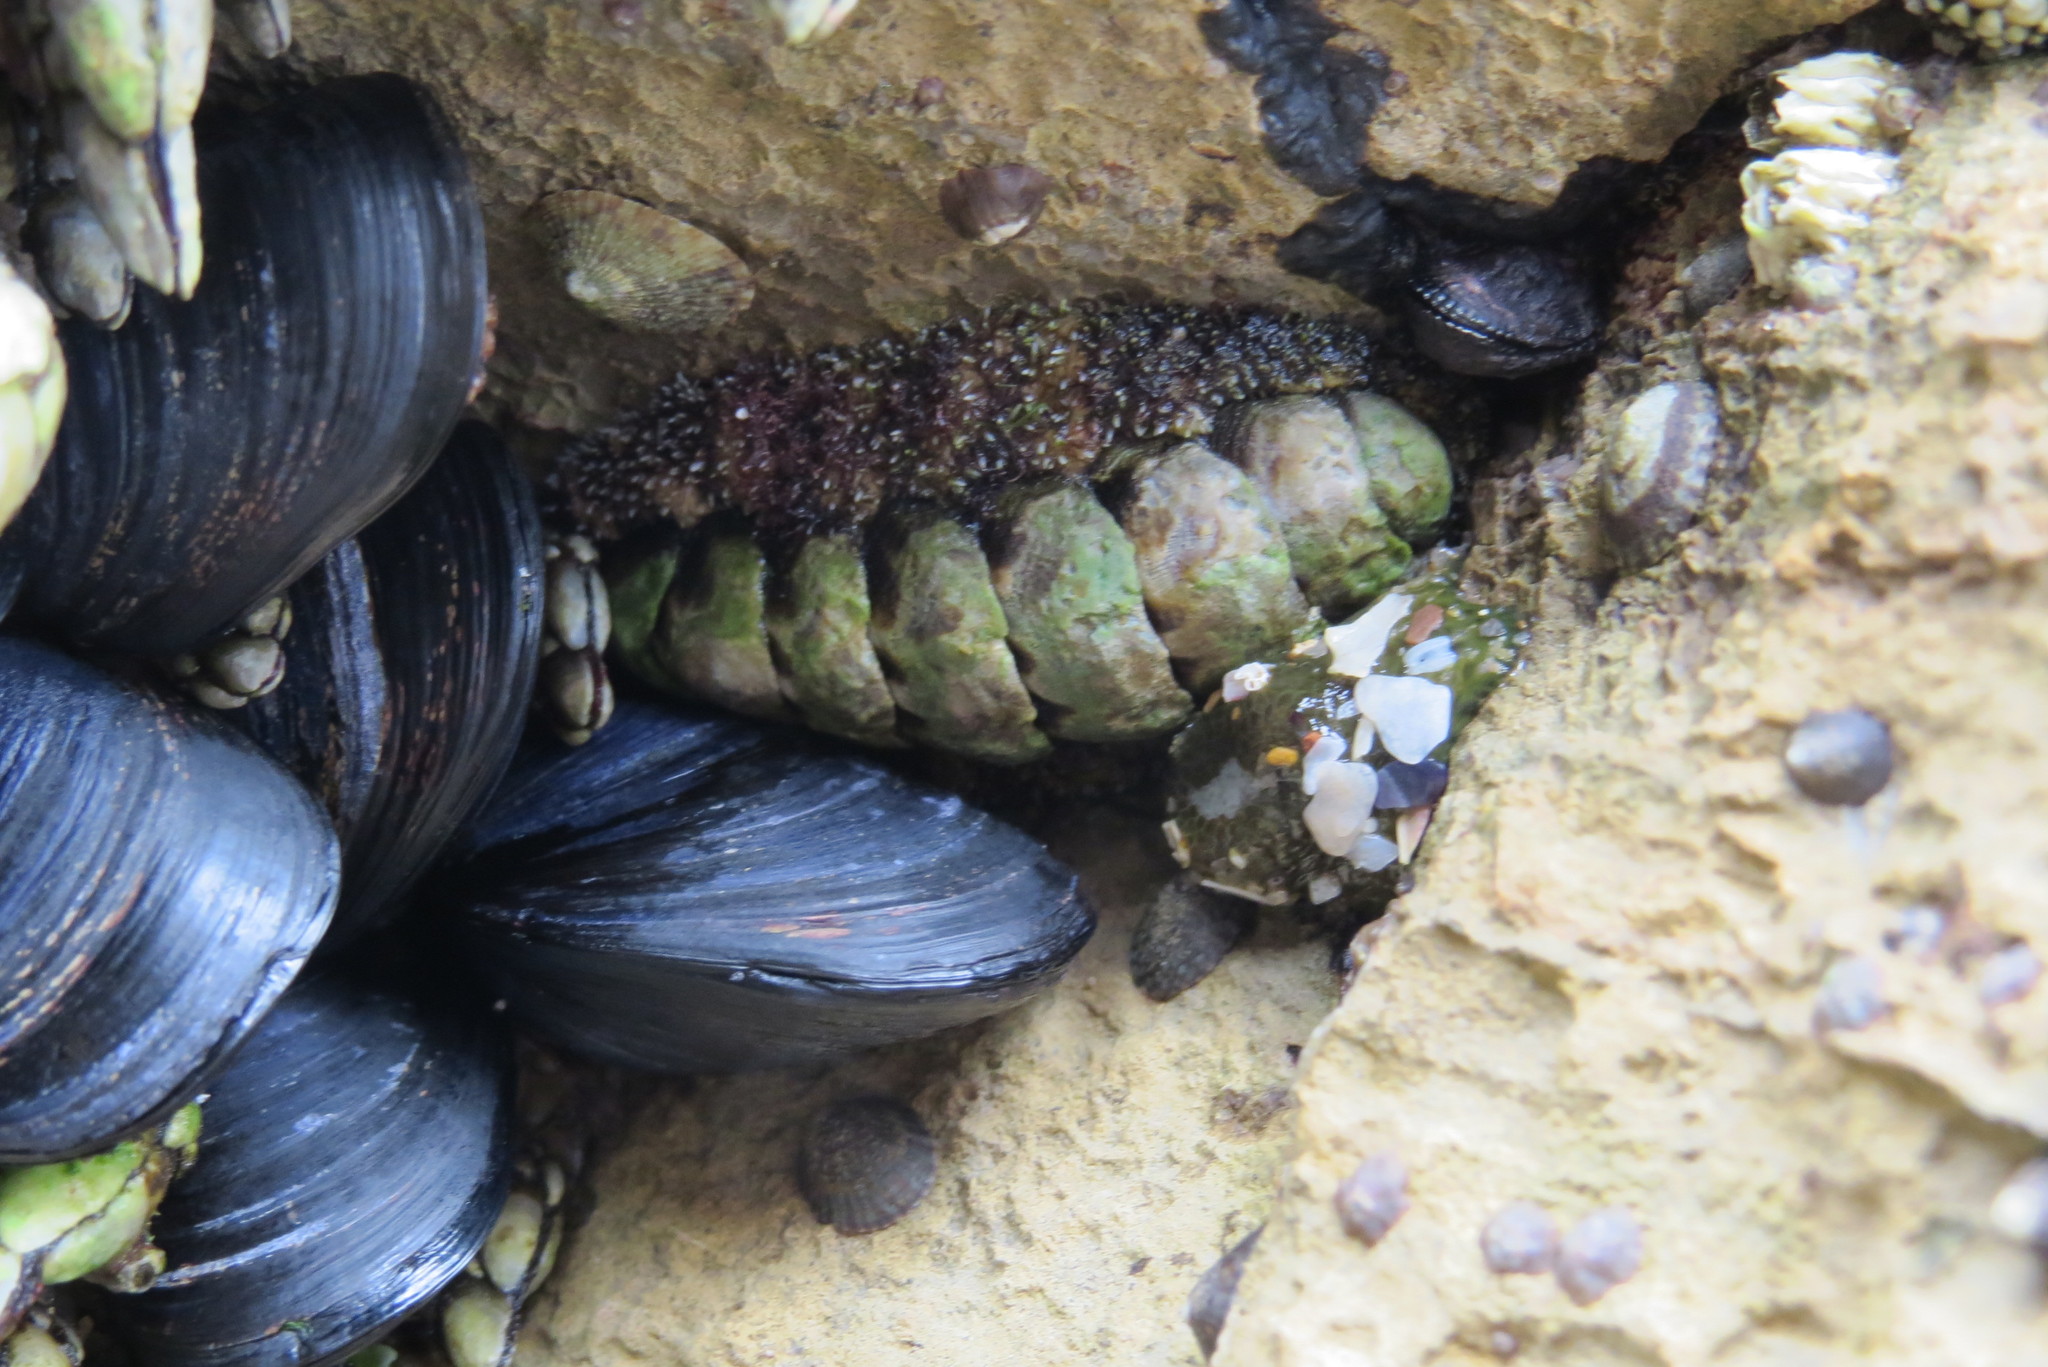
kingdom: Animalia
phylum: Mollusca
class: Polyplacophora
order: Chitonida
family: Tonicellidae
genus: Nuttallina
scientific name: Nuttallina californica
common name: California nuttall chiton
